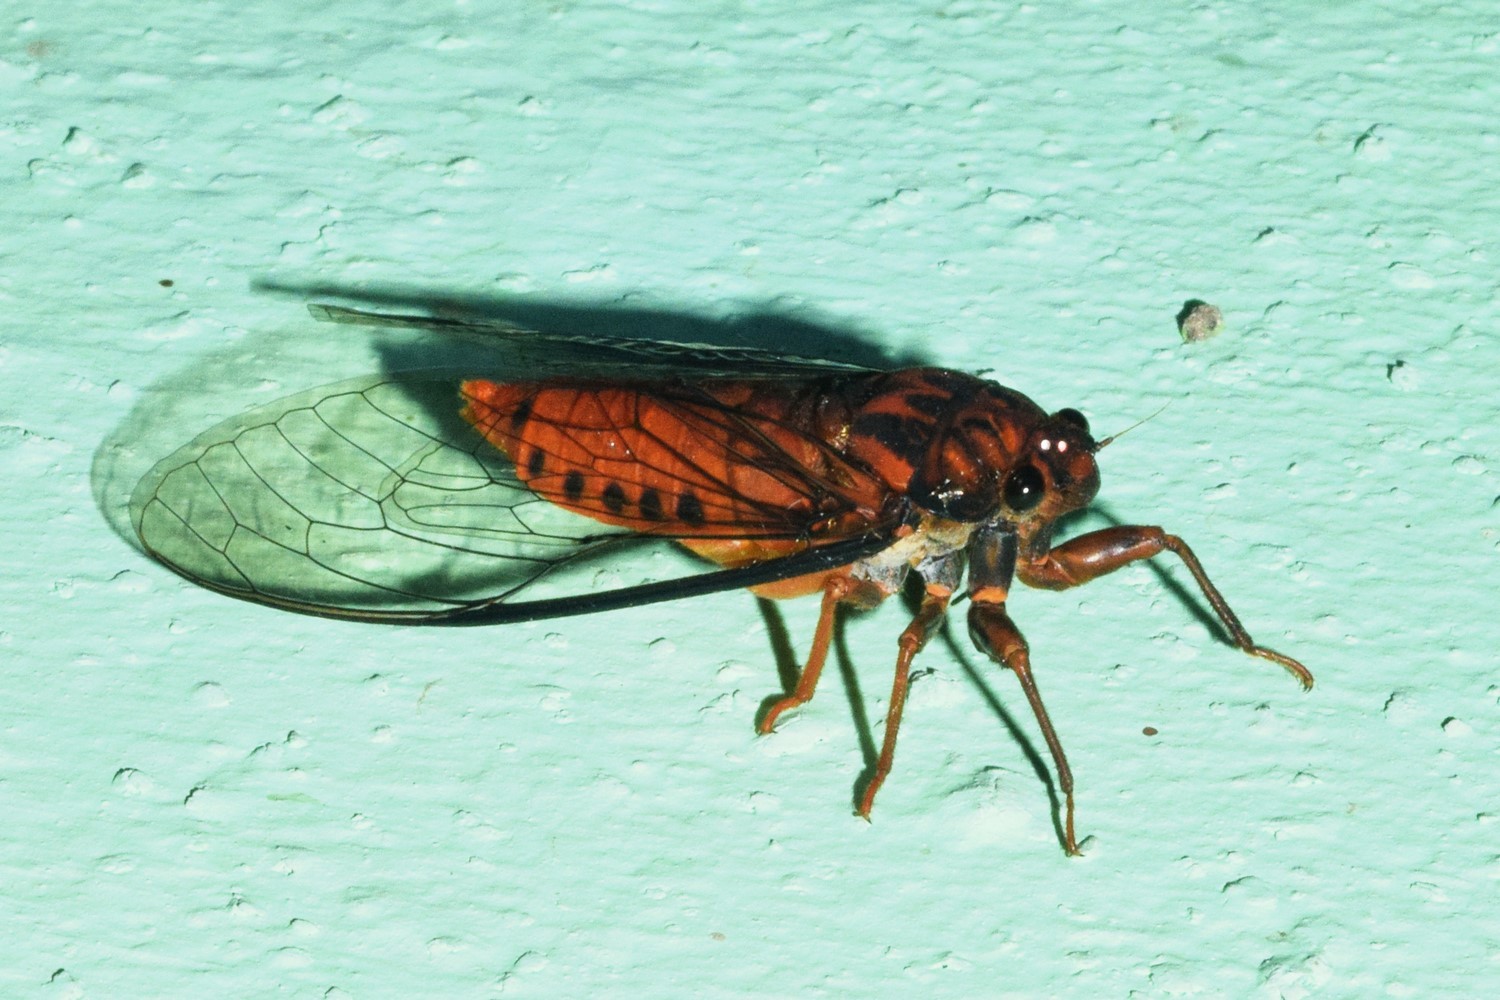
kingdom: Animalia
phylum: Arthropoda
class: Insecta
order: Hemiptera
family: Cicadidae
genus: Lahugada
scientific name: Lahugada dohertyi
